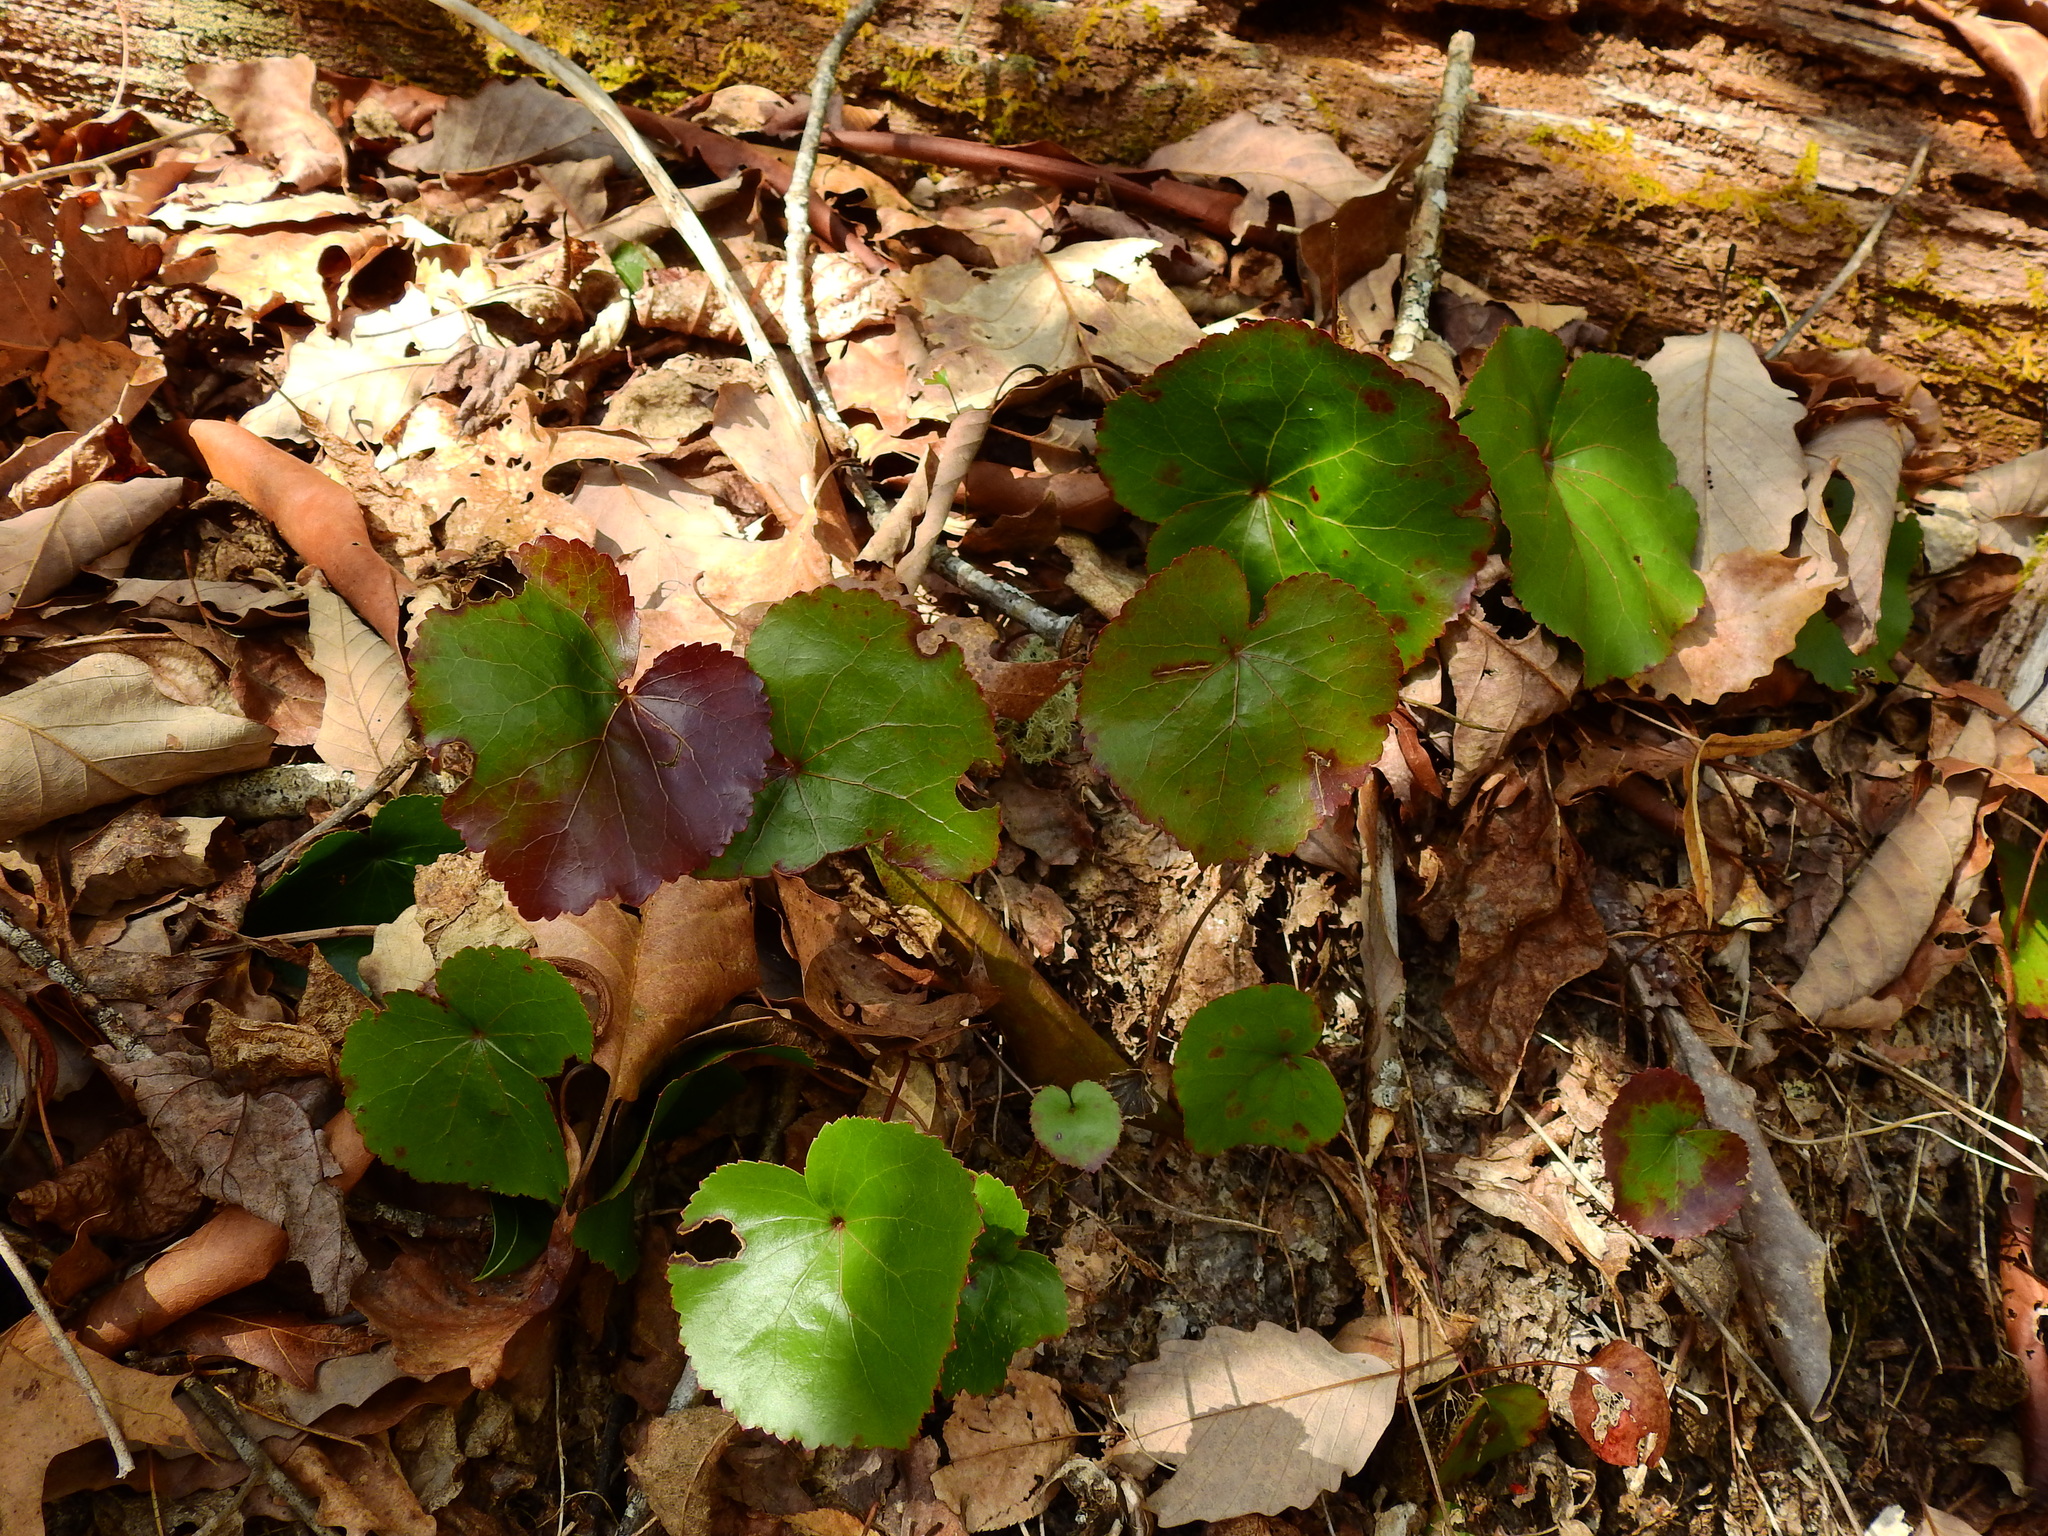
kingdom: Plantae
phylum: Tracheophyta
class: Magnoliopsida
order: Ericales
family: Diapensiaceae
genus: Galax
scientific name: Galax urceolata
